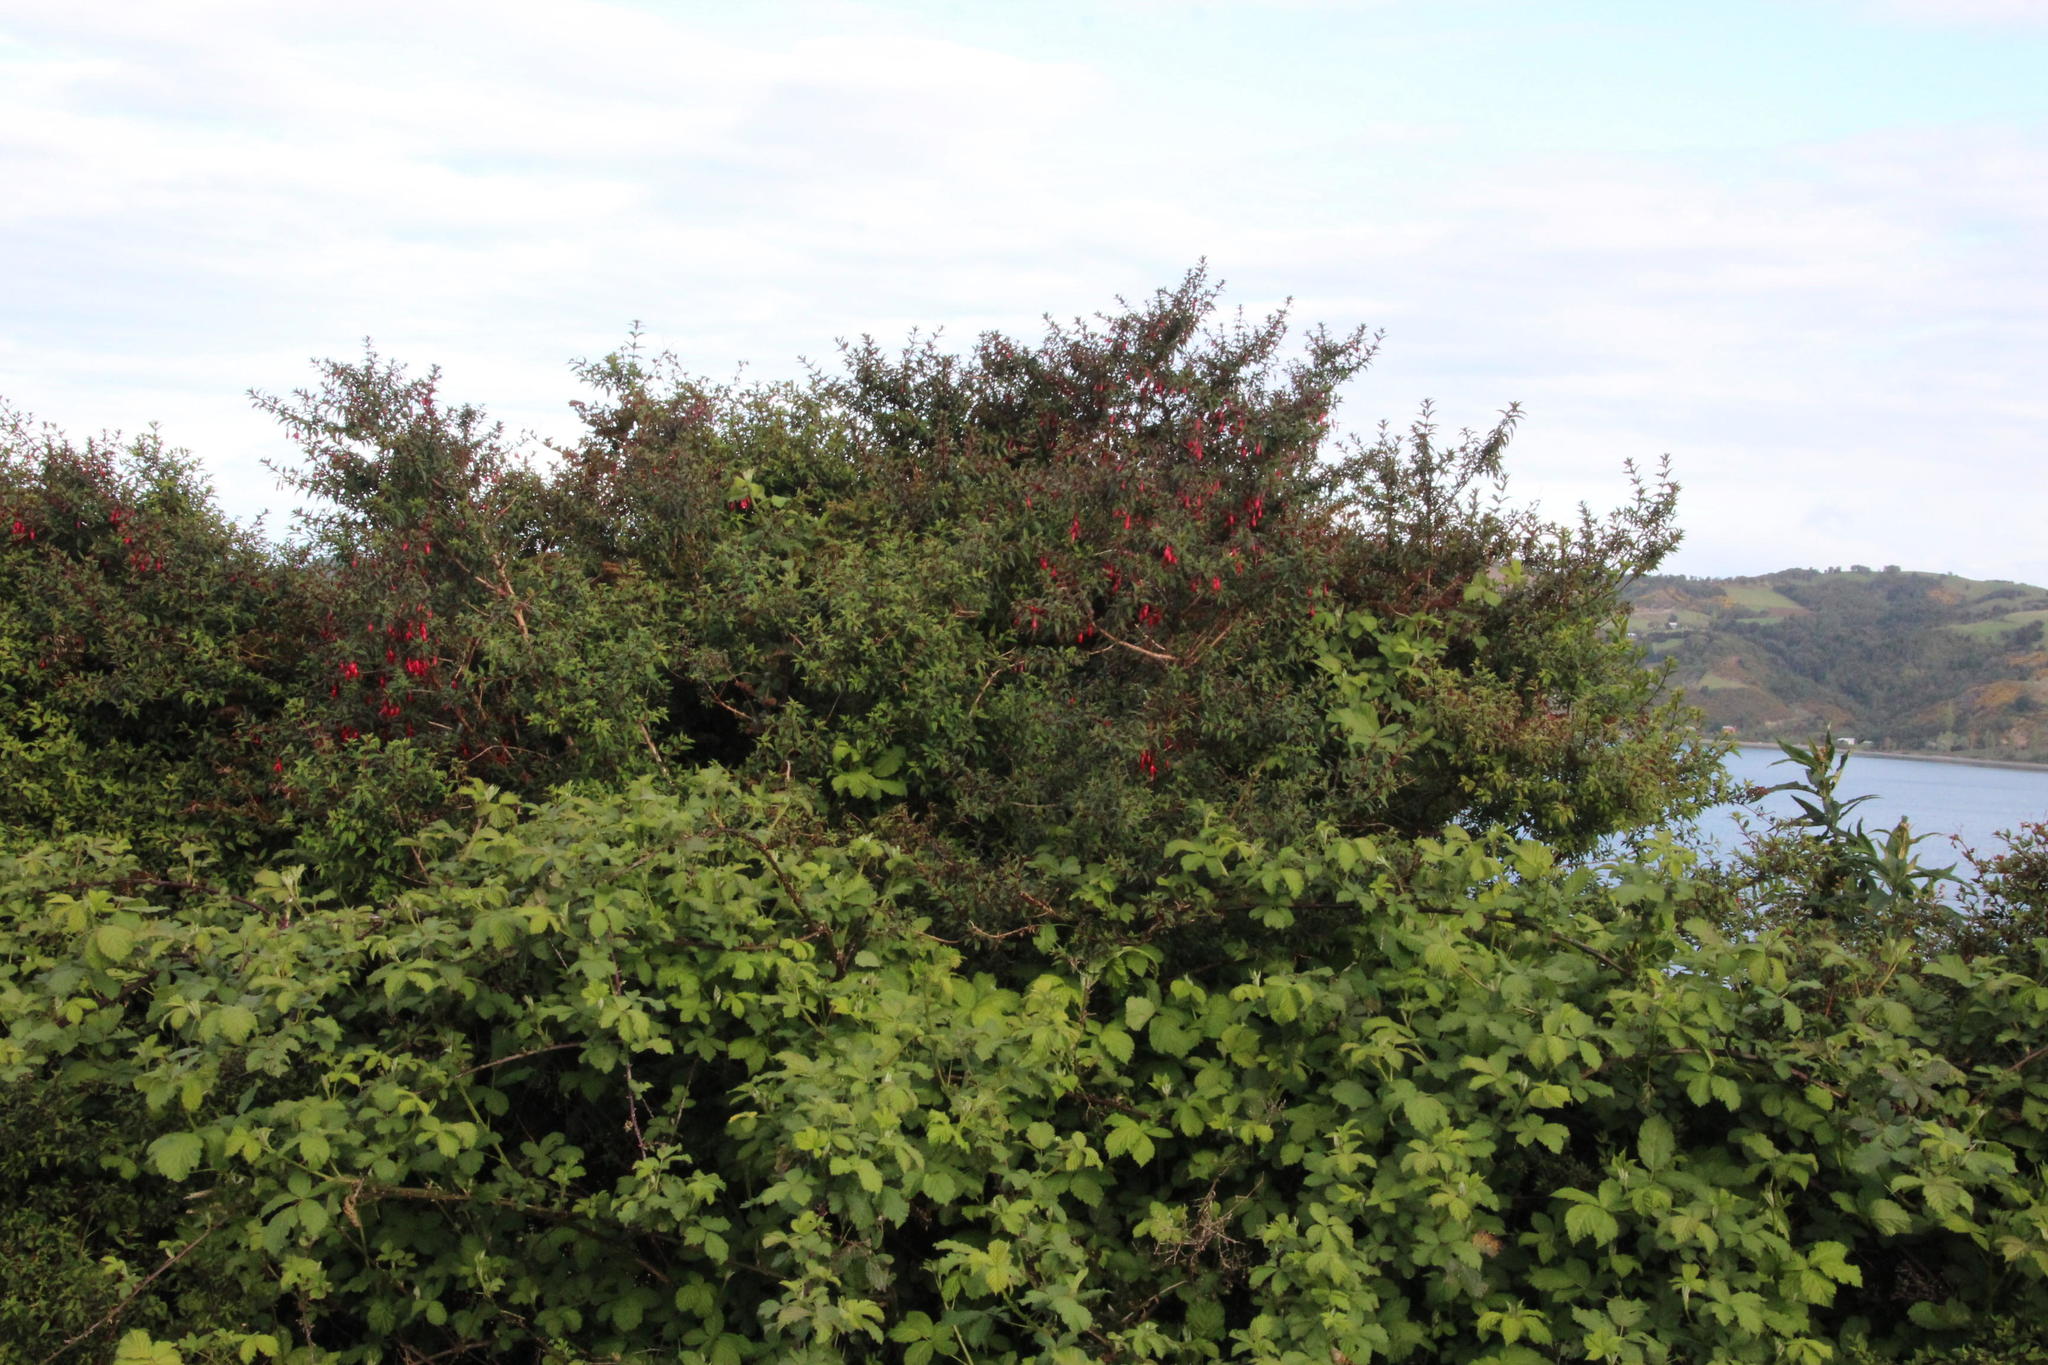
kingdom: Plantae
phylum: Tracheophyta
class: Magnoliopsida
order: Myrtales
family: Onagraceae
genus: Fuchsia
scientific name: Fuchsia magellanica
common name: Hardy fuchsia
